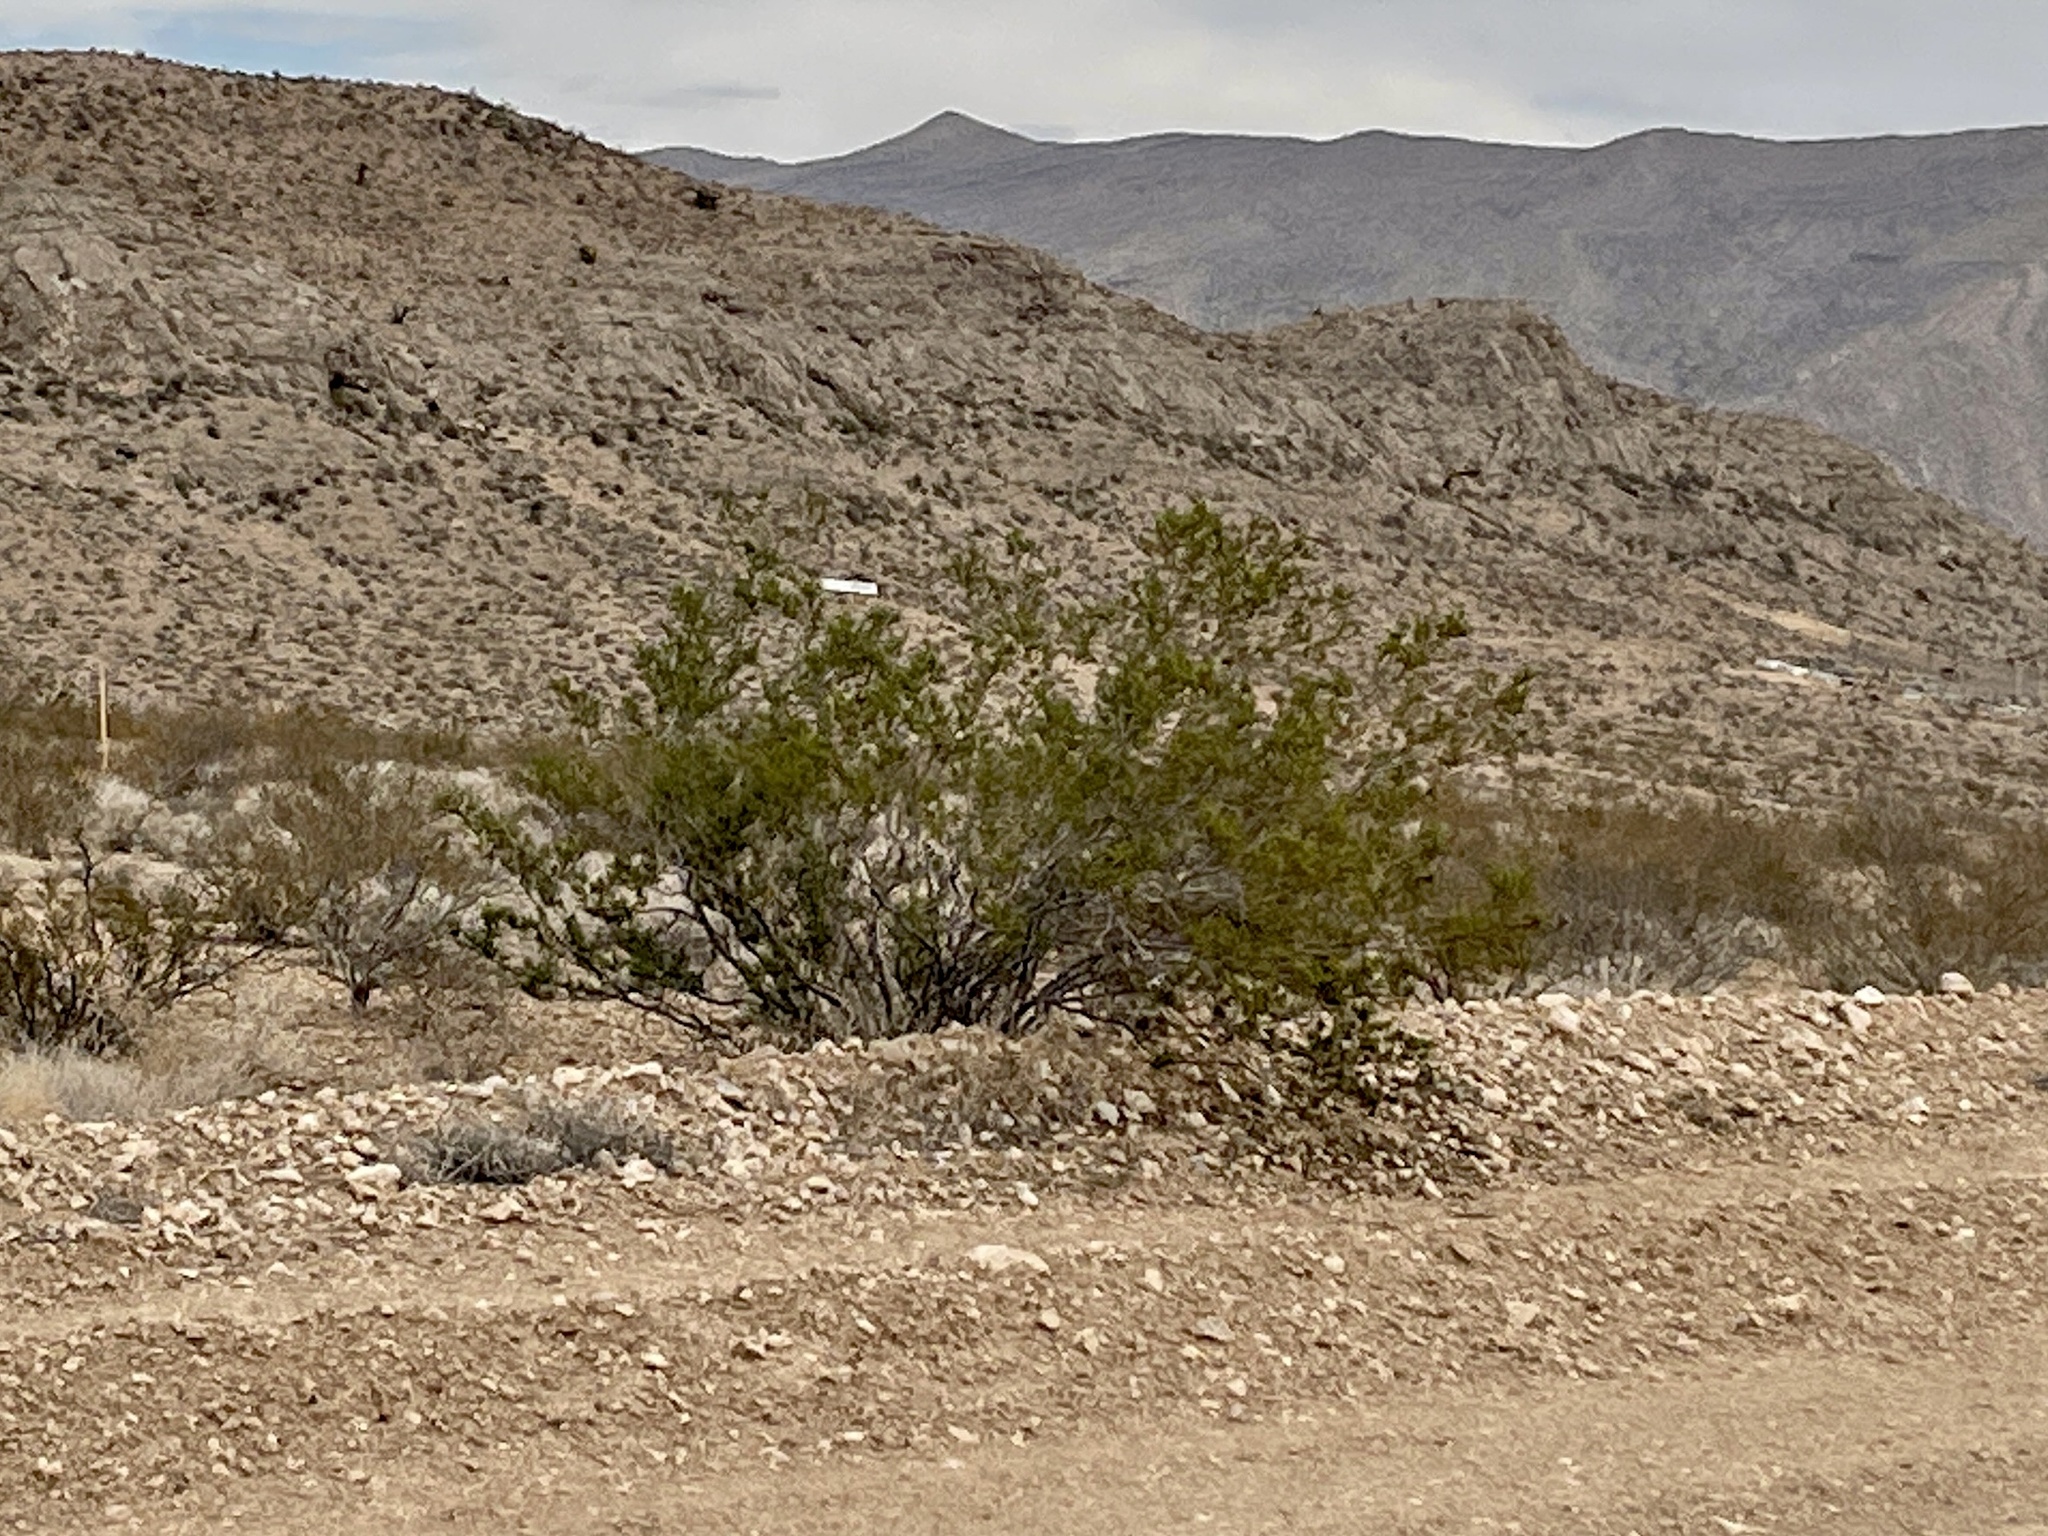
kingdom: Plantae
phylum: Tracheophyta
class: Magnoliopsida
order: Zygophyllales
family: Zygophyllaceae
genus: Larrea
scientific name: Larrea tridentata
